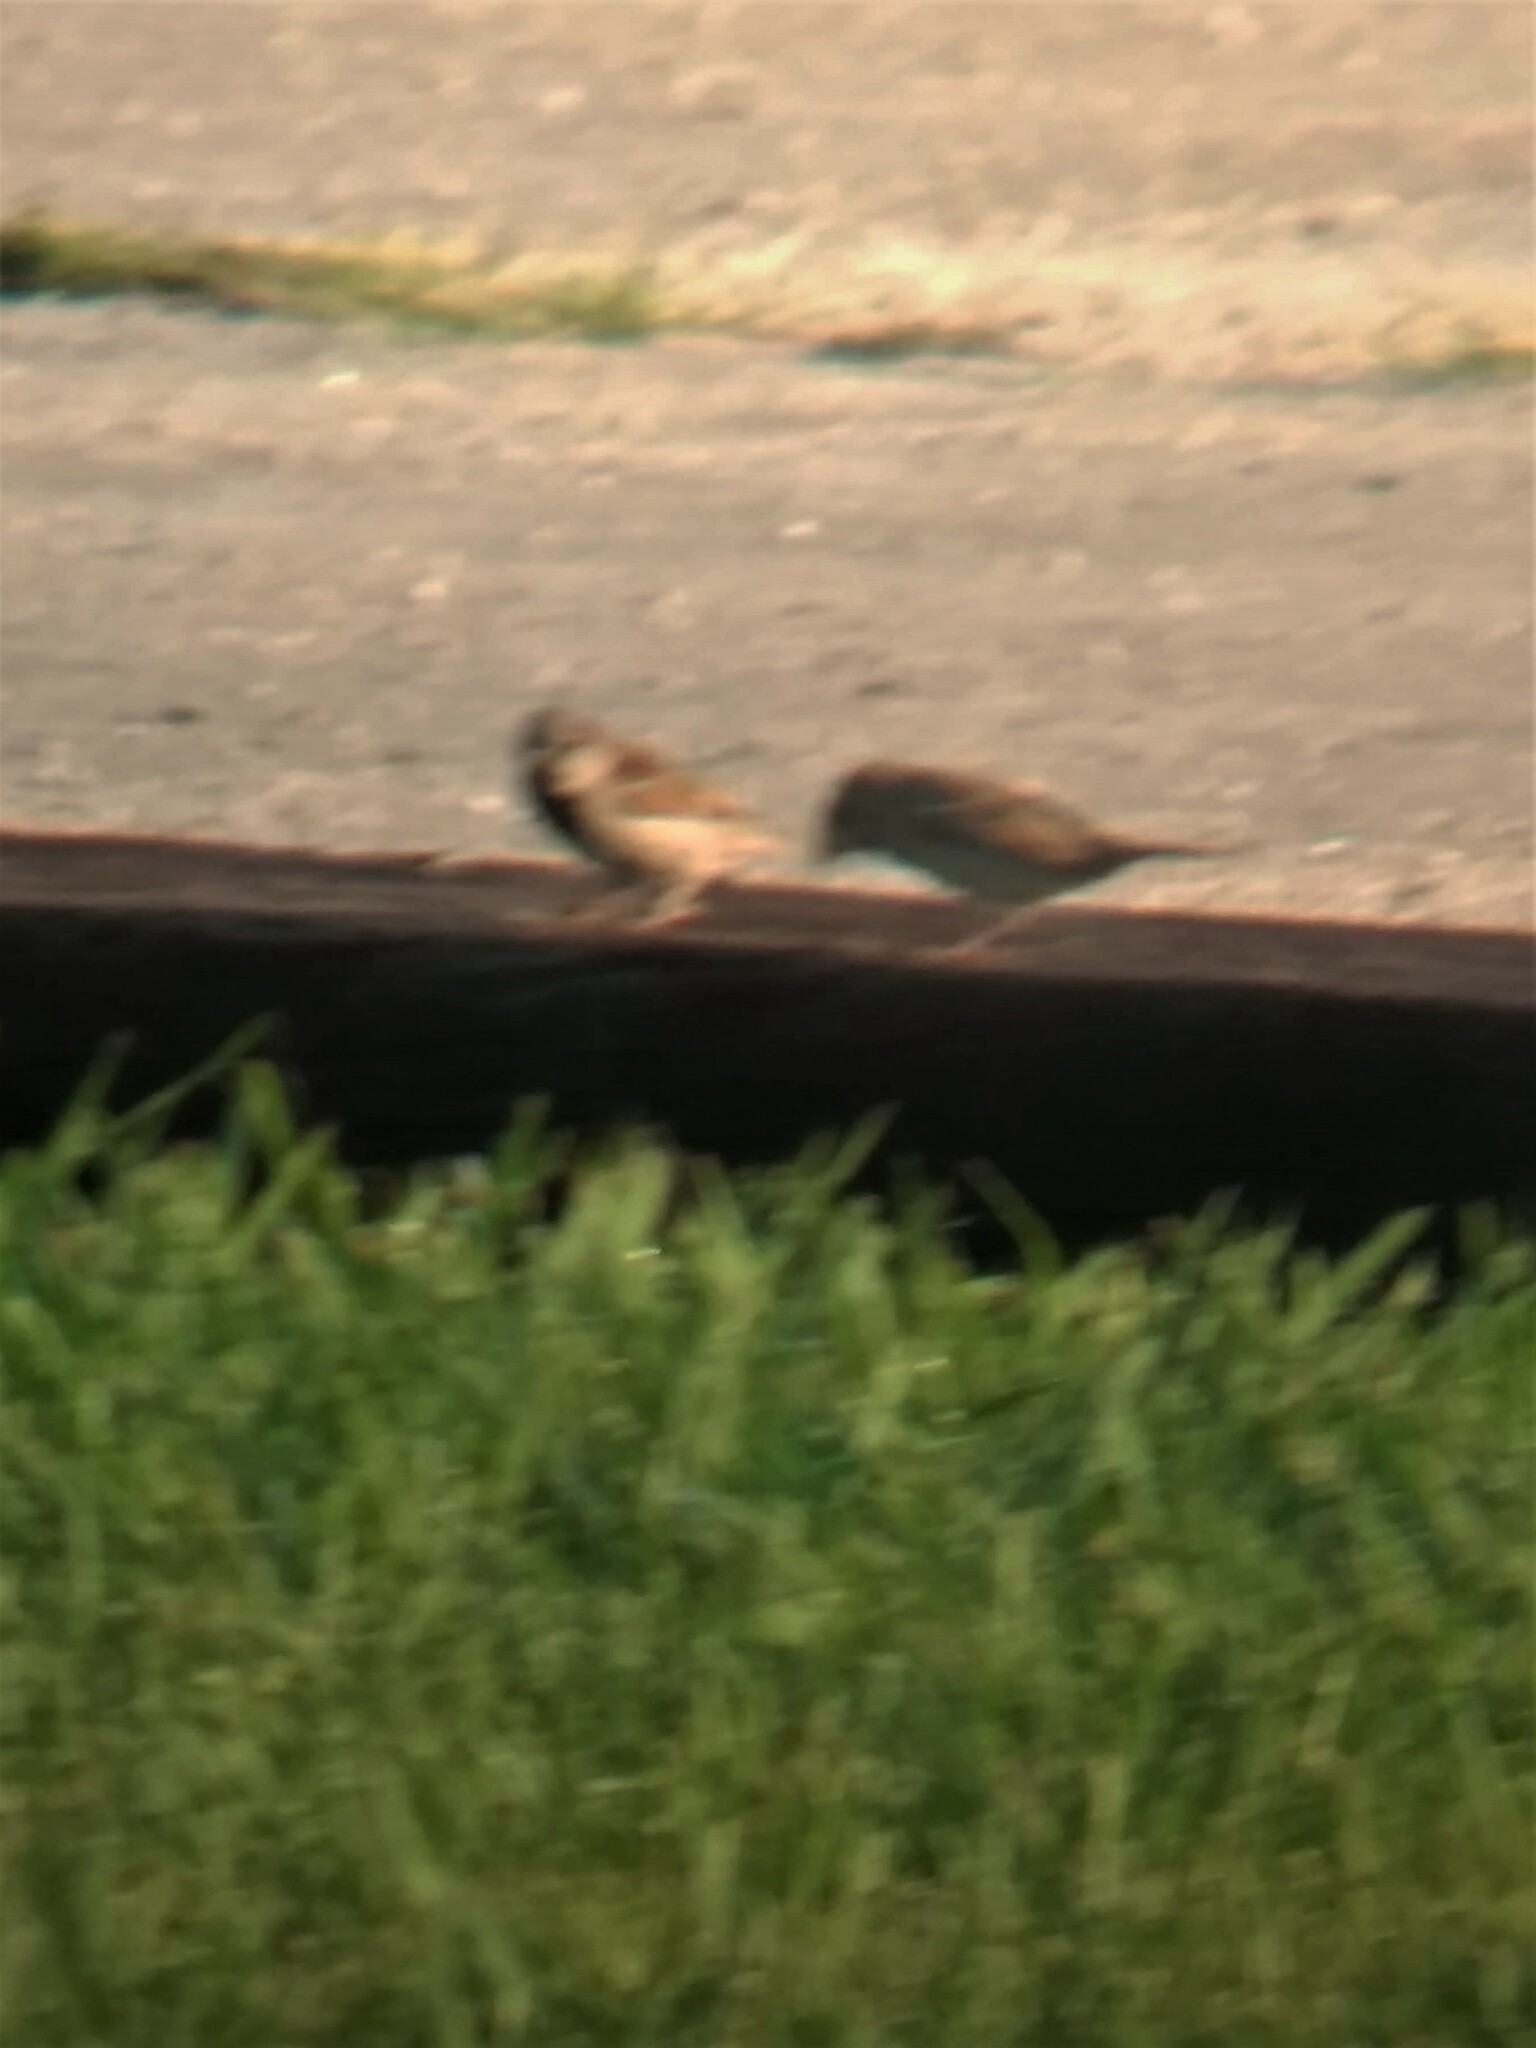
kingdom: Animalia
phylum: Chordata
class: Aves
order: Passeriformes
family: Passeridae
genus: Passer
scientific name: Passer domesticus
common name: House sparrow
